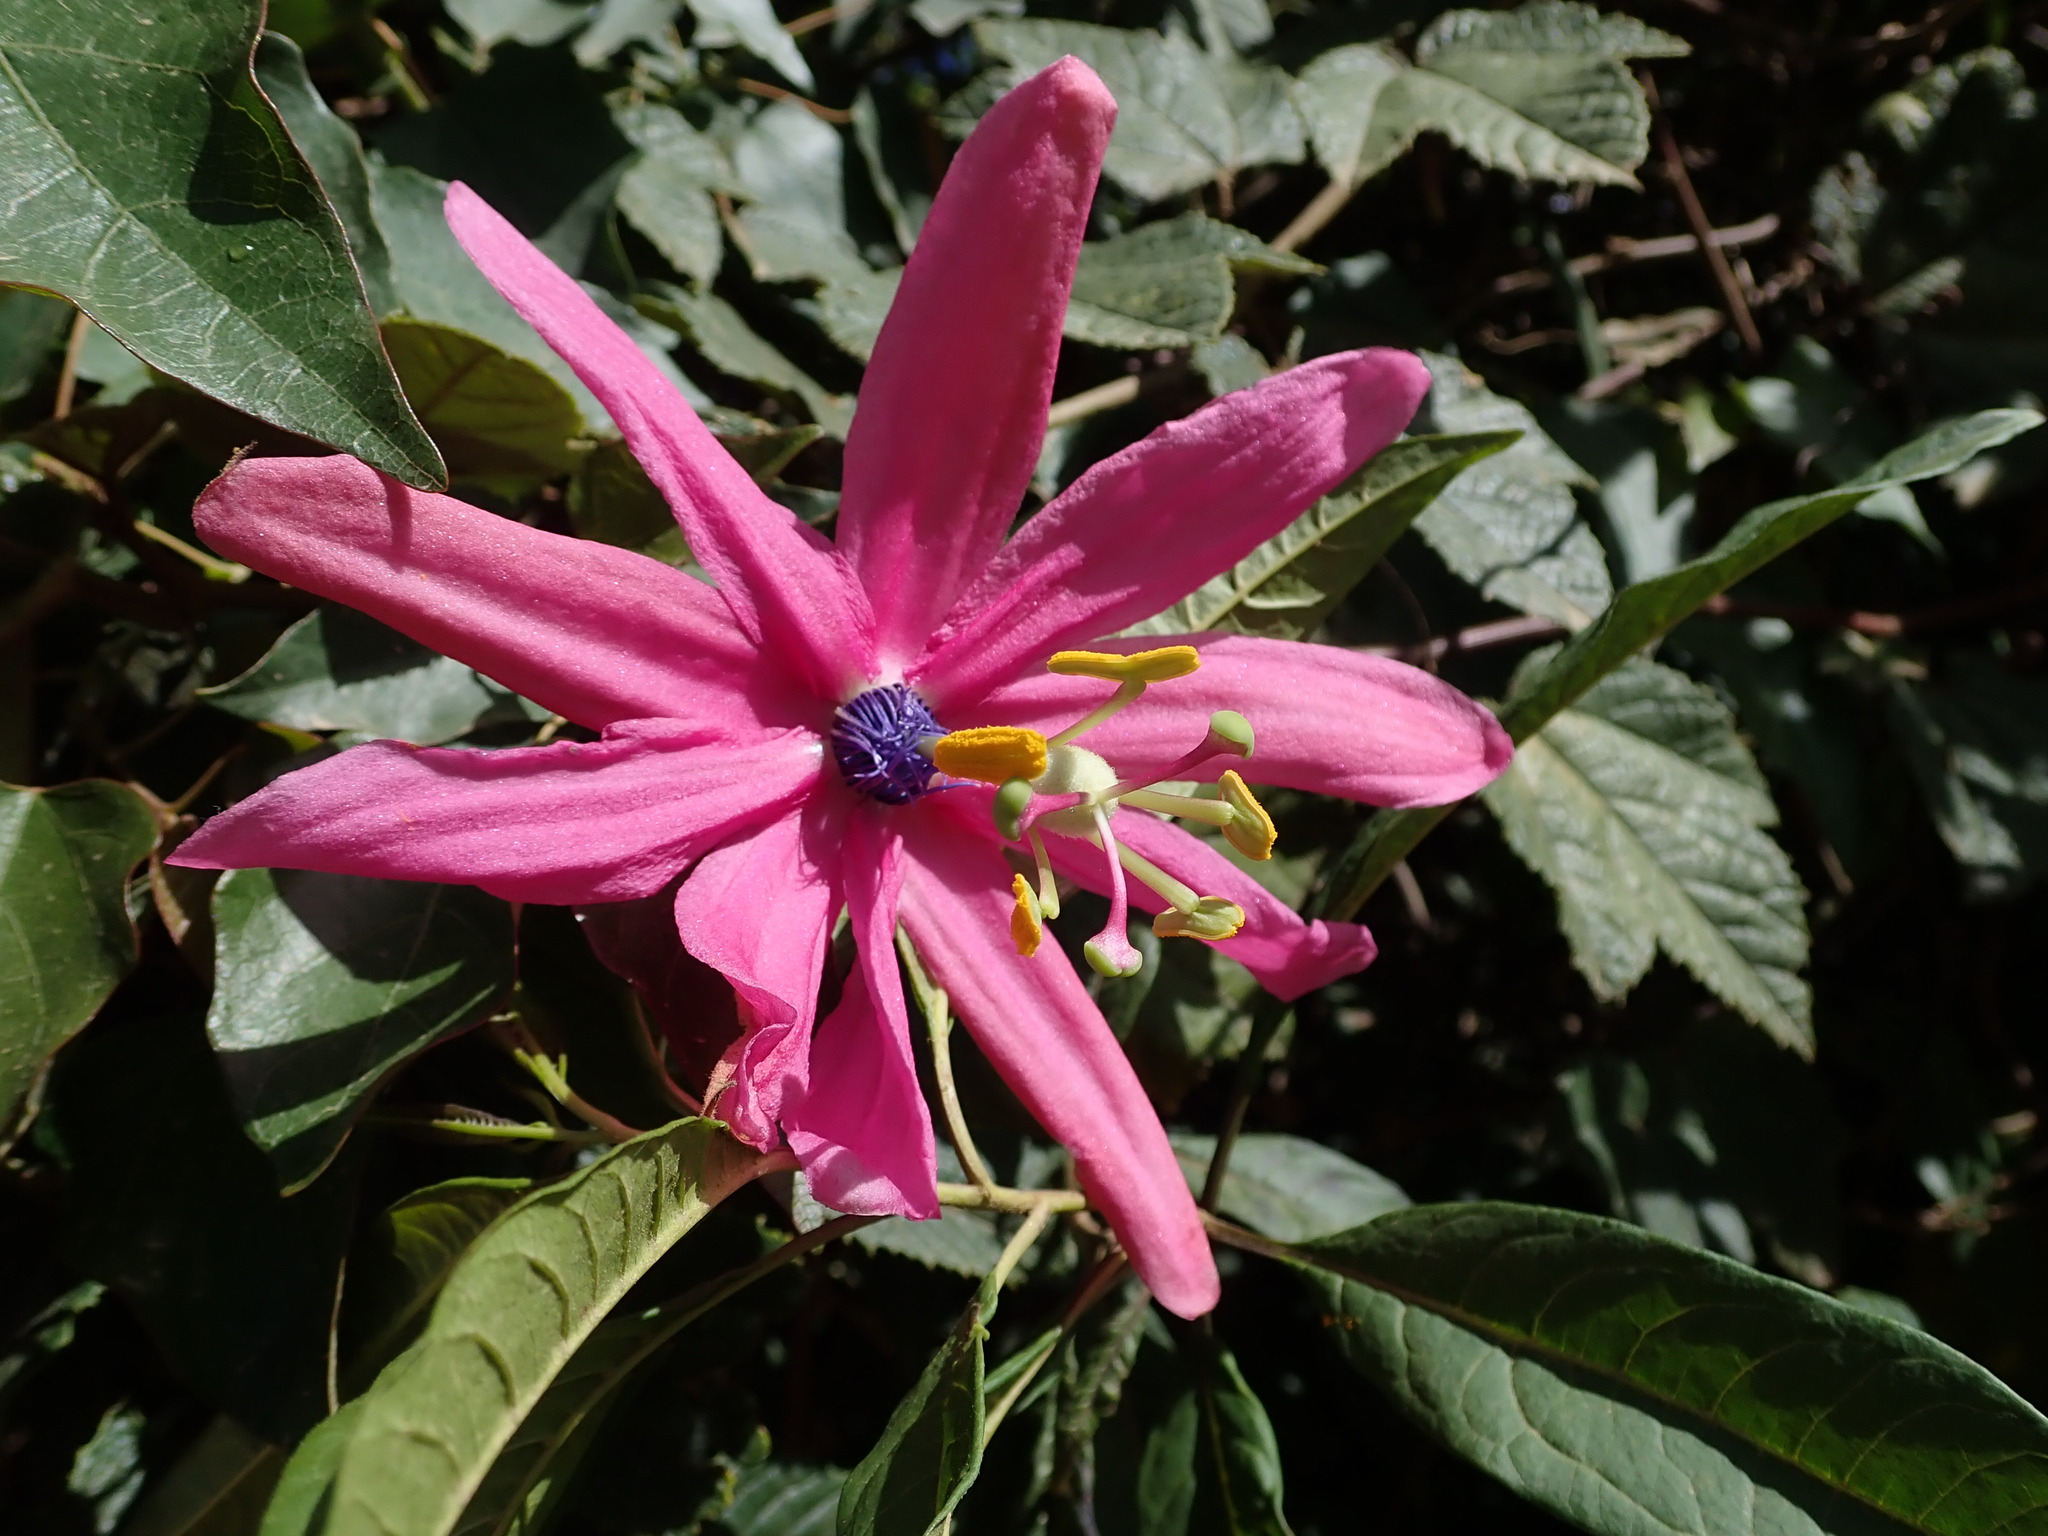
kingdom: Plantae
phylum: Tracheophyta
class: Magnoliopsida
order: Malpighiales
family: Passifloraceae
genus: Passiflora
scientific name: Passiflora pilosicorona
